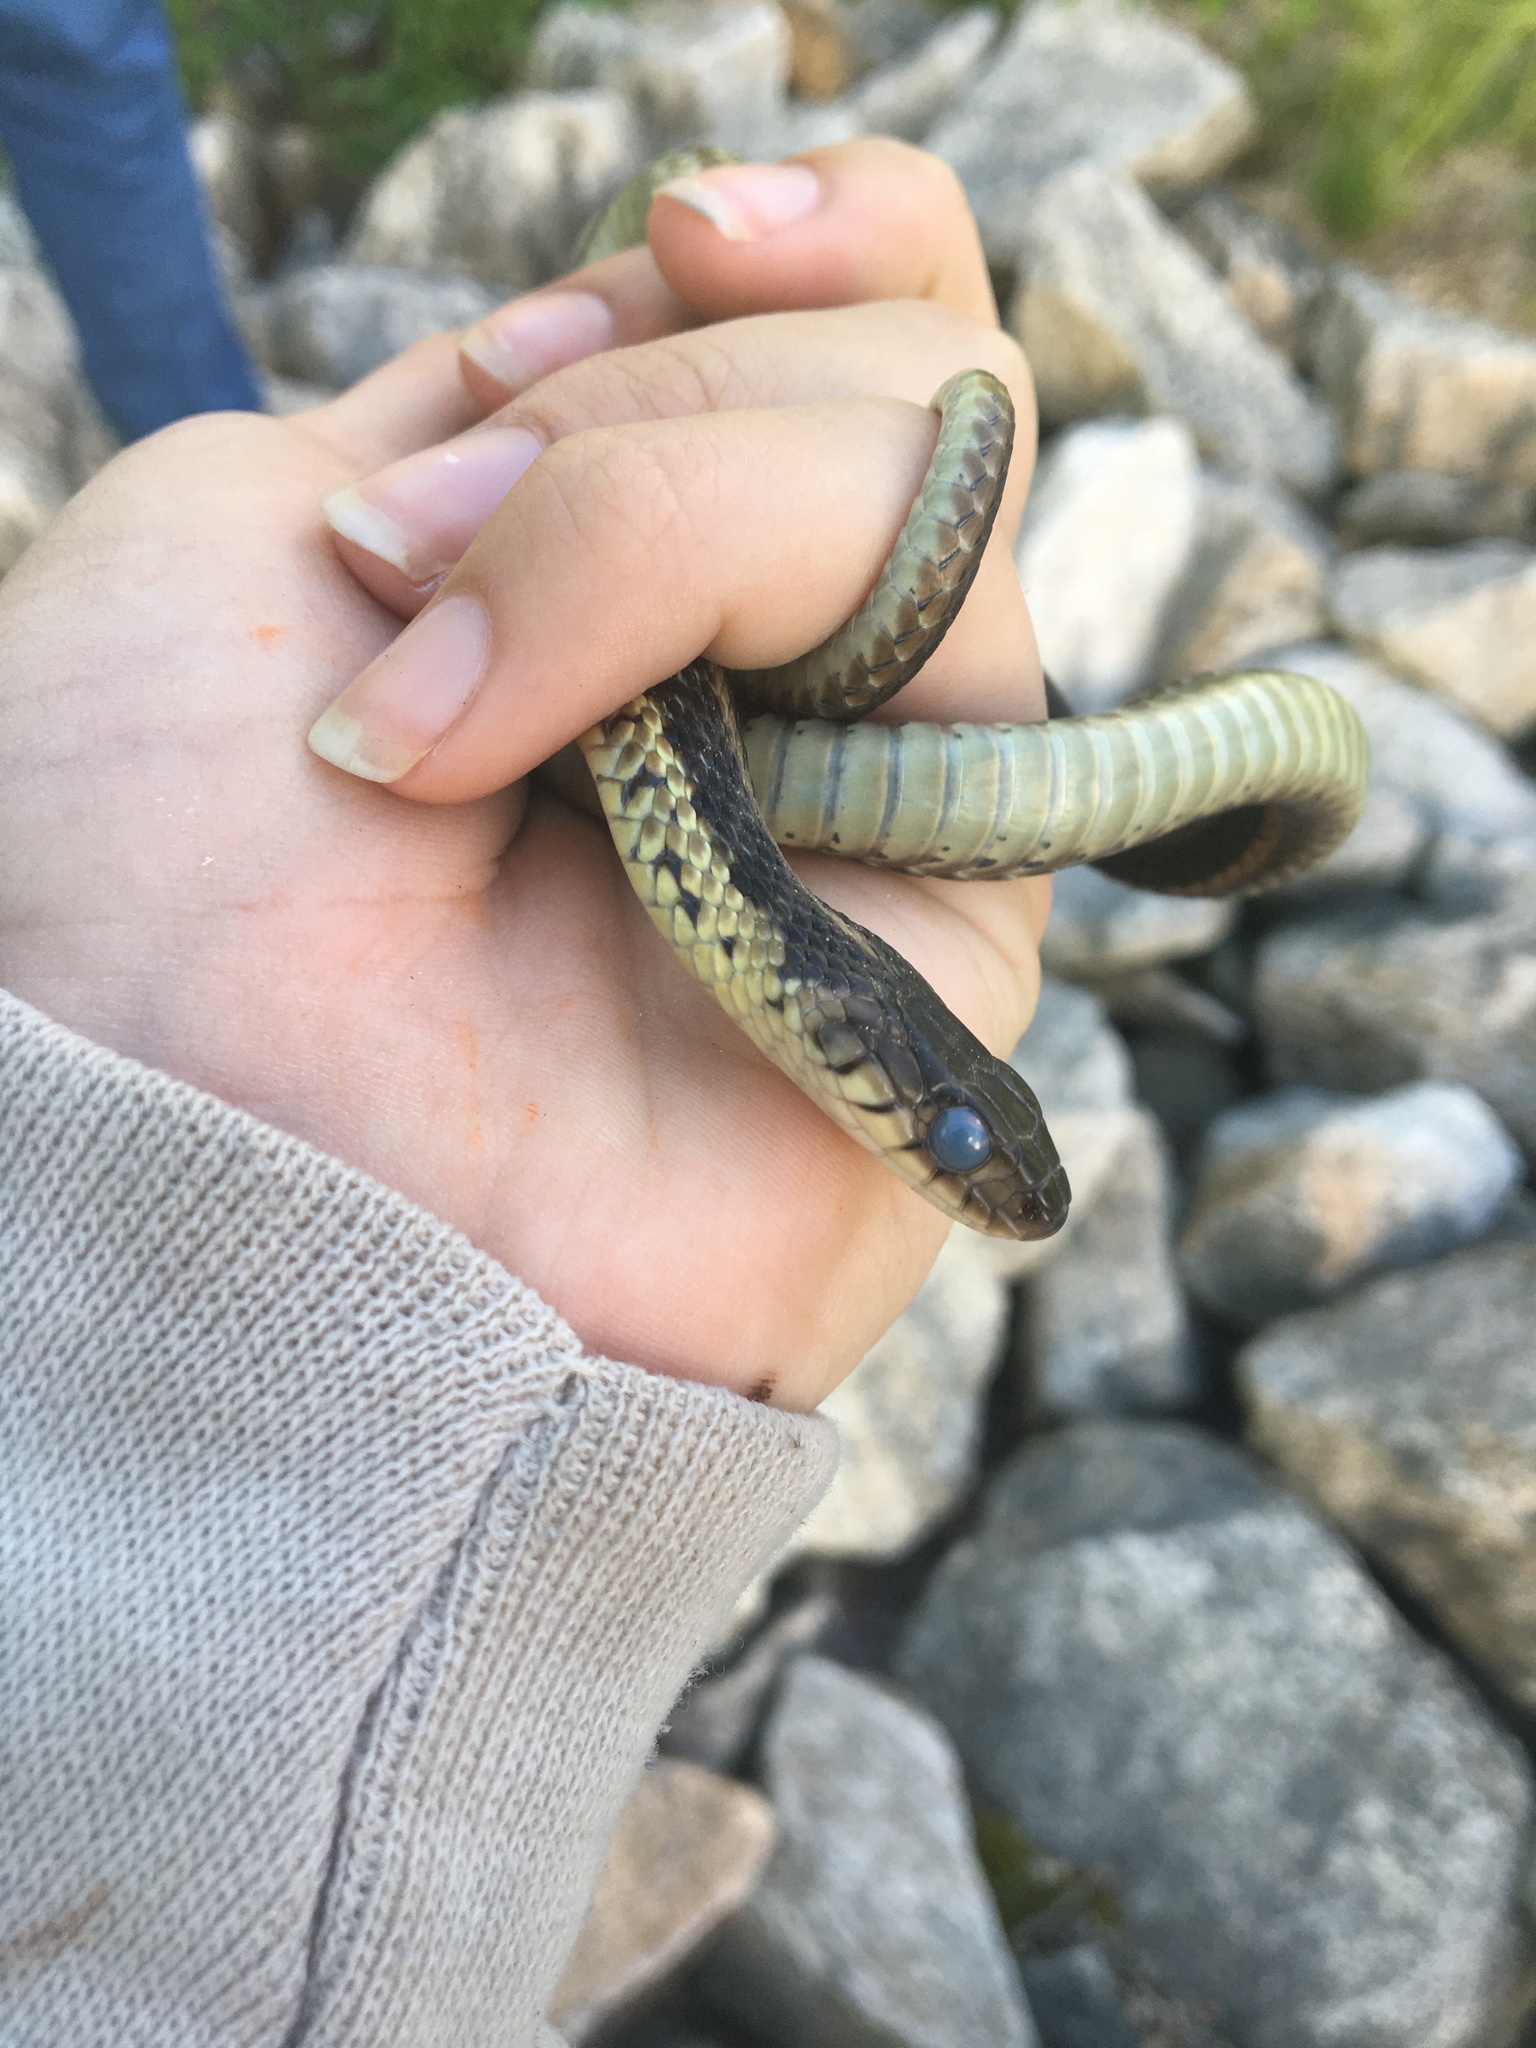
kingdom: Animalia
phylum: Chordata
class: Squamata
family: Colubridae
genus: Thamnophis
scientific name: Thamnophis sirtalis
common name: Common garter snake
